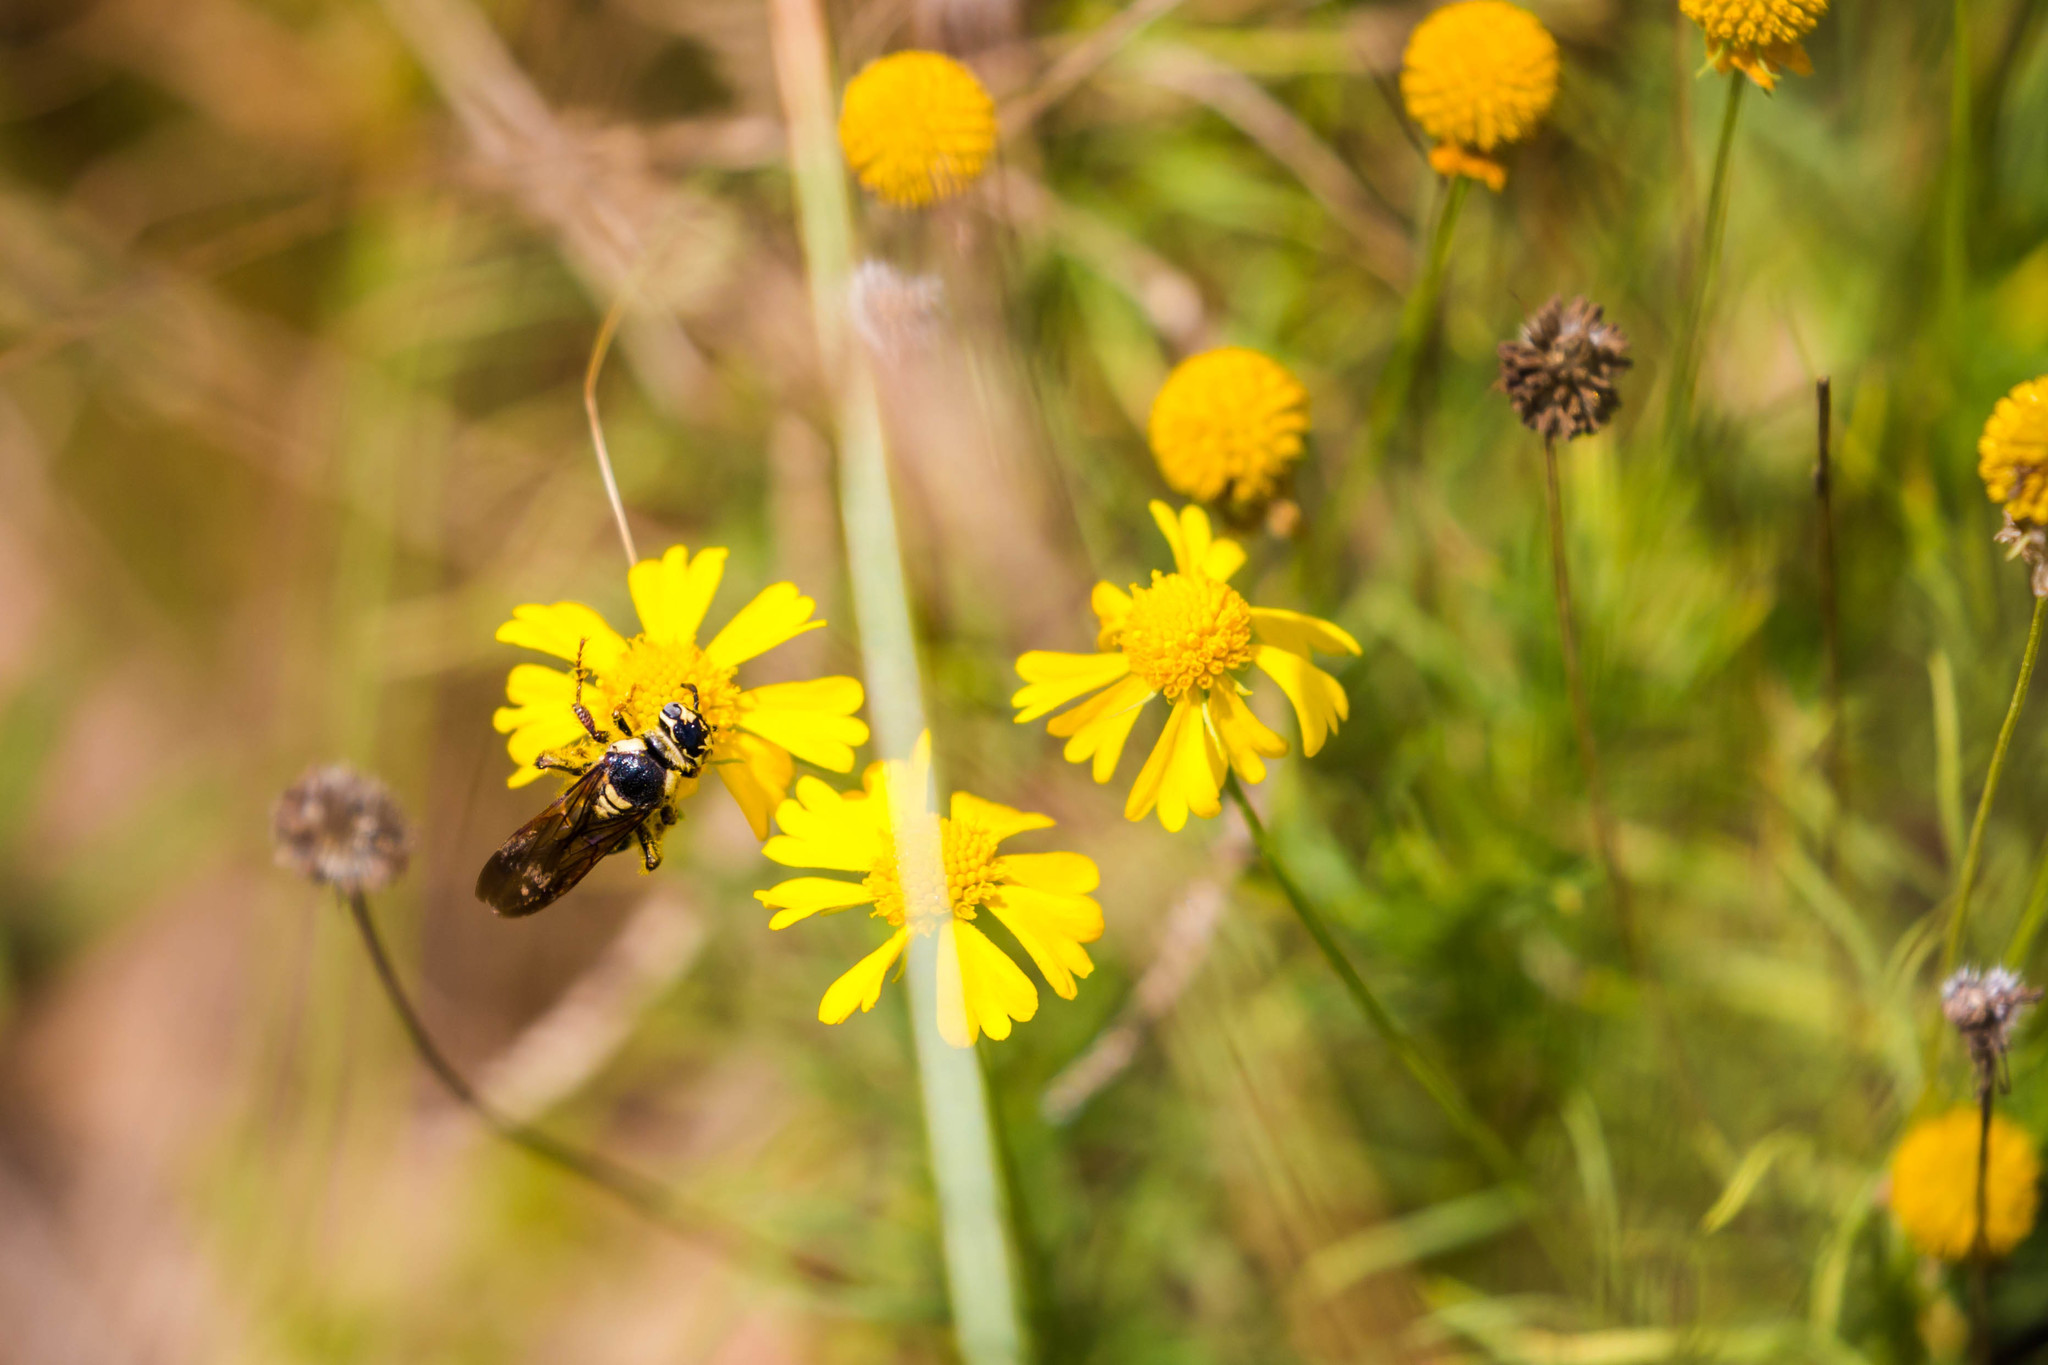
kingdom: Animalia
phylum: Arthropoda
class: Insecta
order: Hymenoptera
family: Scoliidae
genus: Colpa
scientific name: Colpa octomaculata
